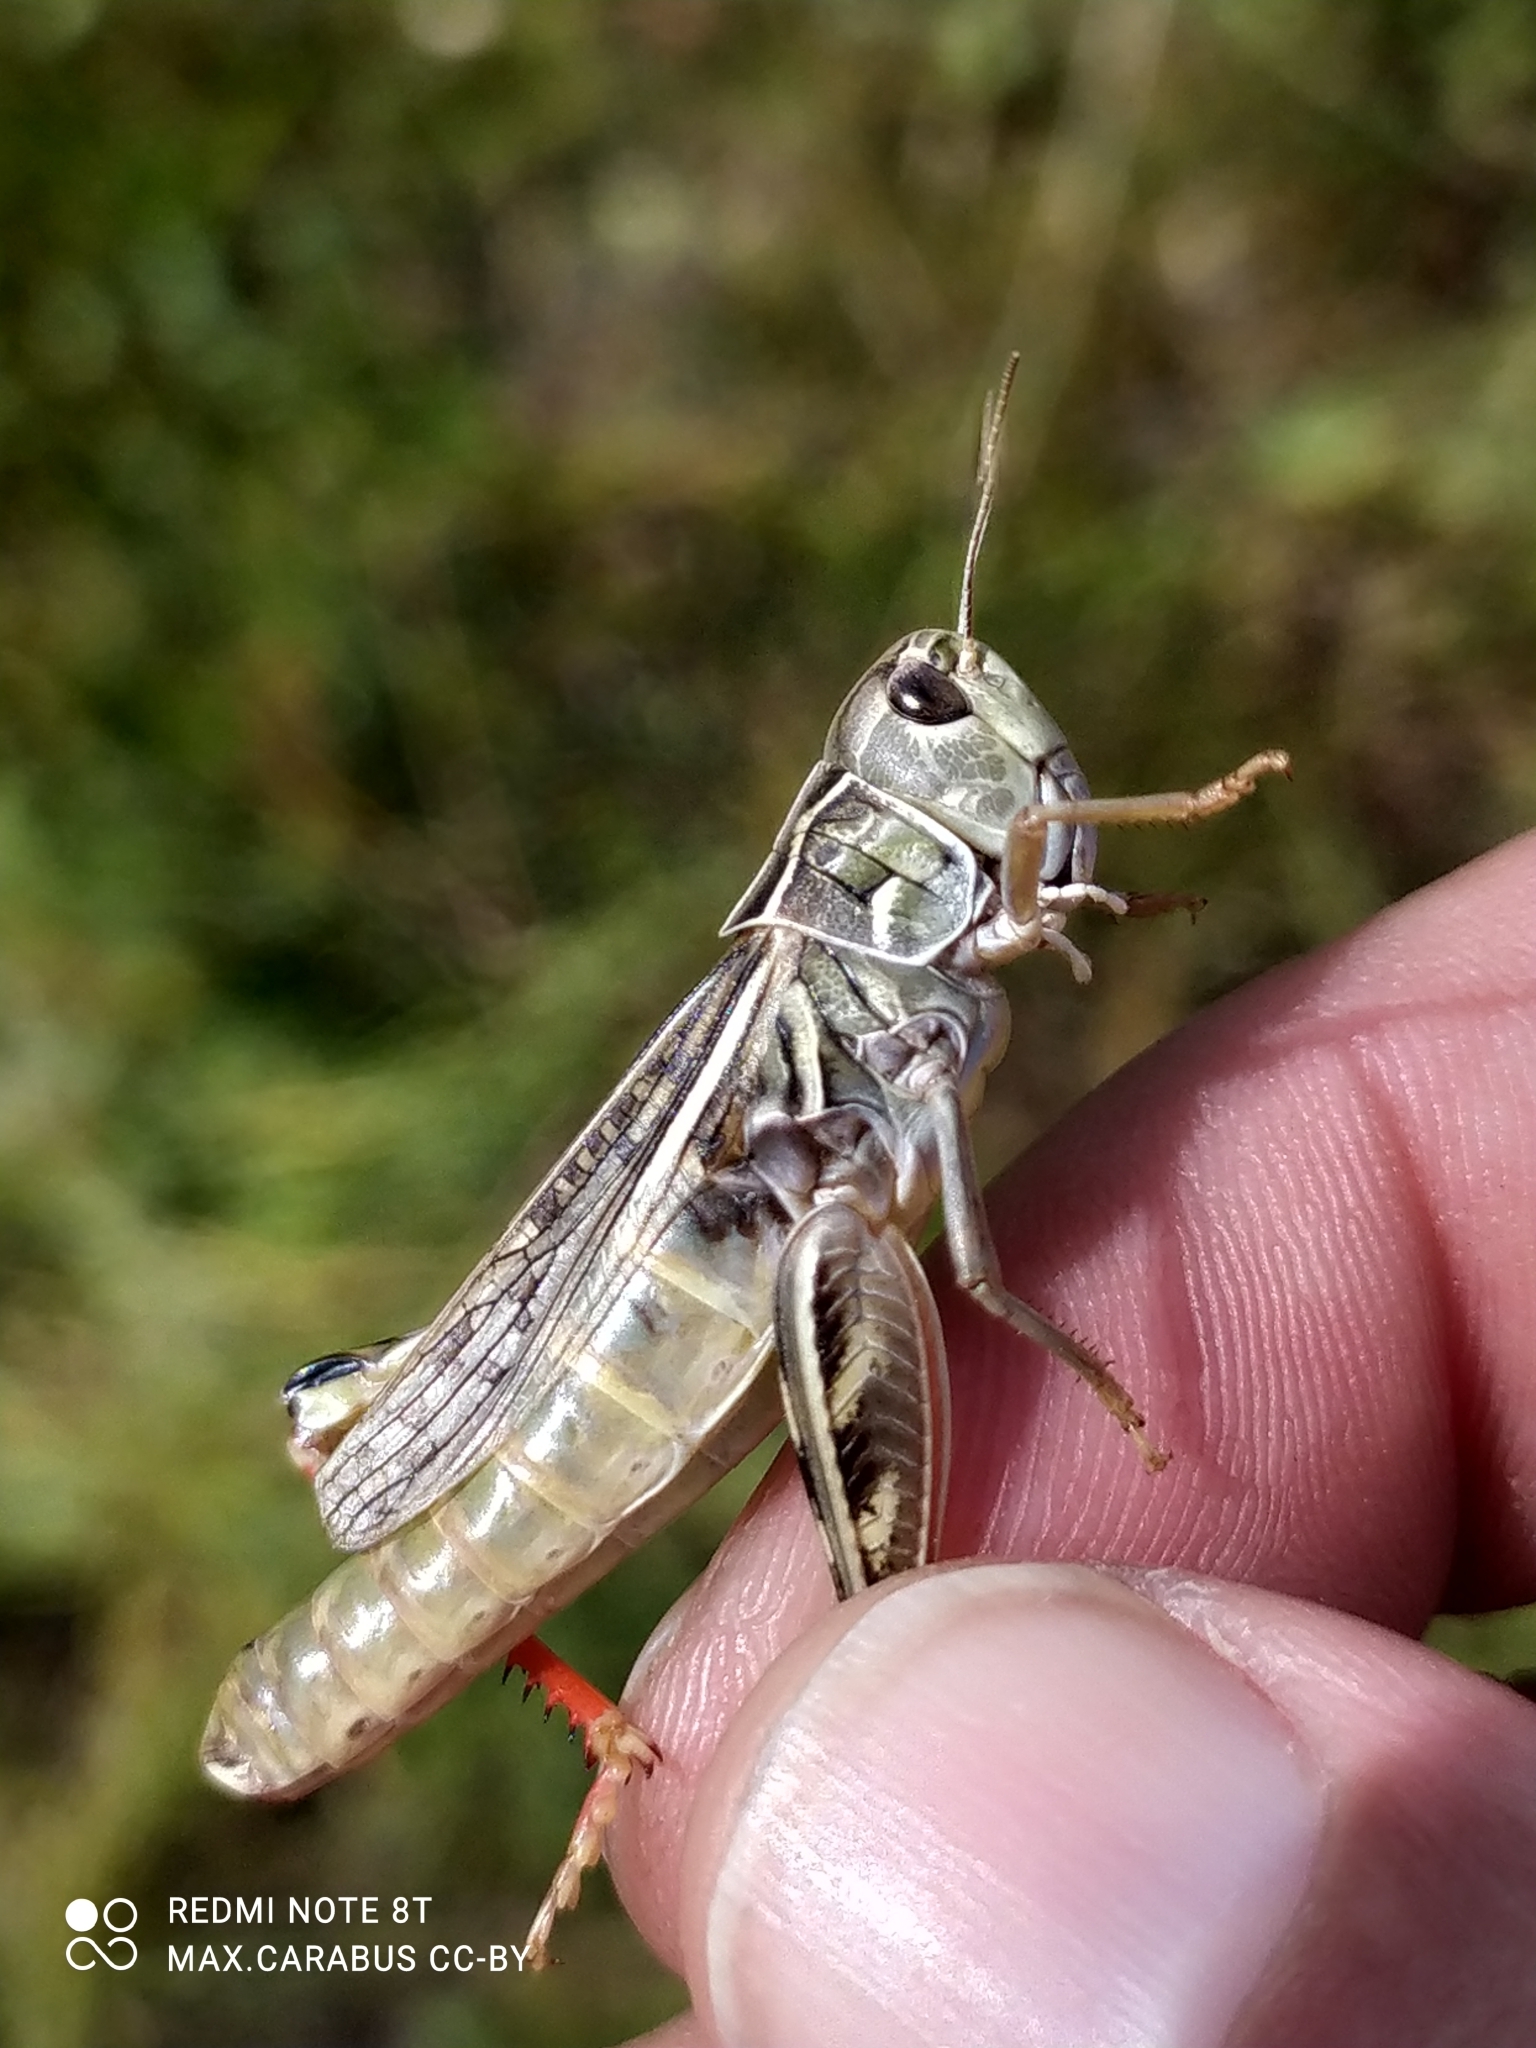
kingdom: Animalia
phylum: Arthropoda
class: Insecta
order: Orthoptera
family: Acrididae
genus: Arcyptera
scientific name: Arcyptera microptera
